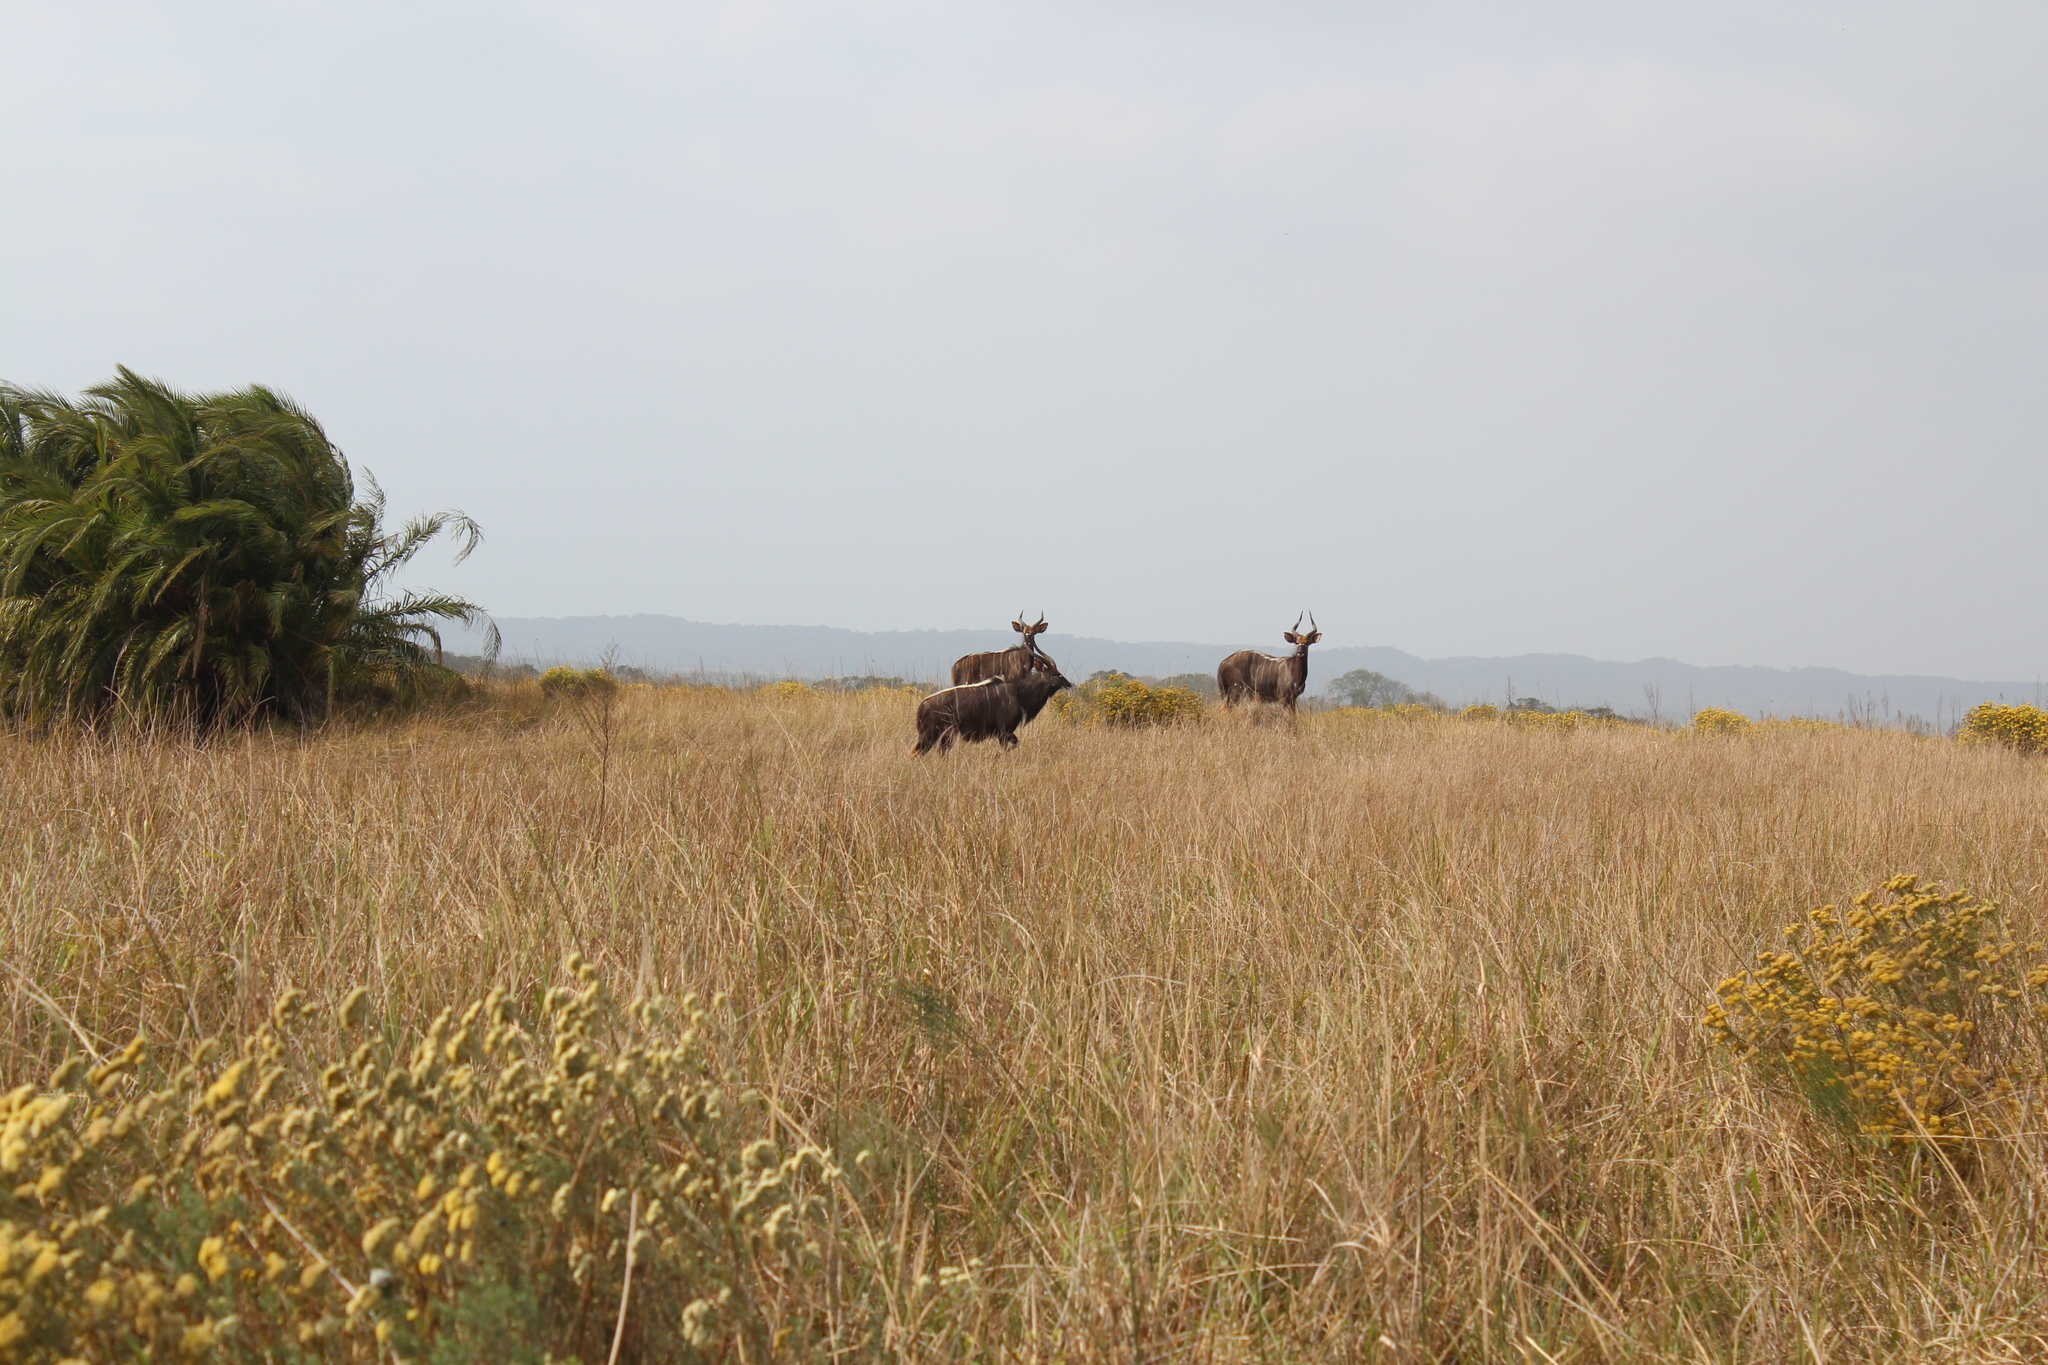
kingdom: Animalia
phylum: Chordata
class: Mammalia
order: Artiodactyla
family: Bovidae
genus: Tragelaphus
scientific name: Tragelaphus angasii
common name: Nyala
